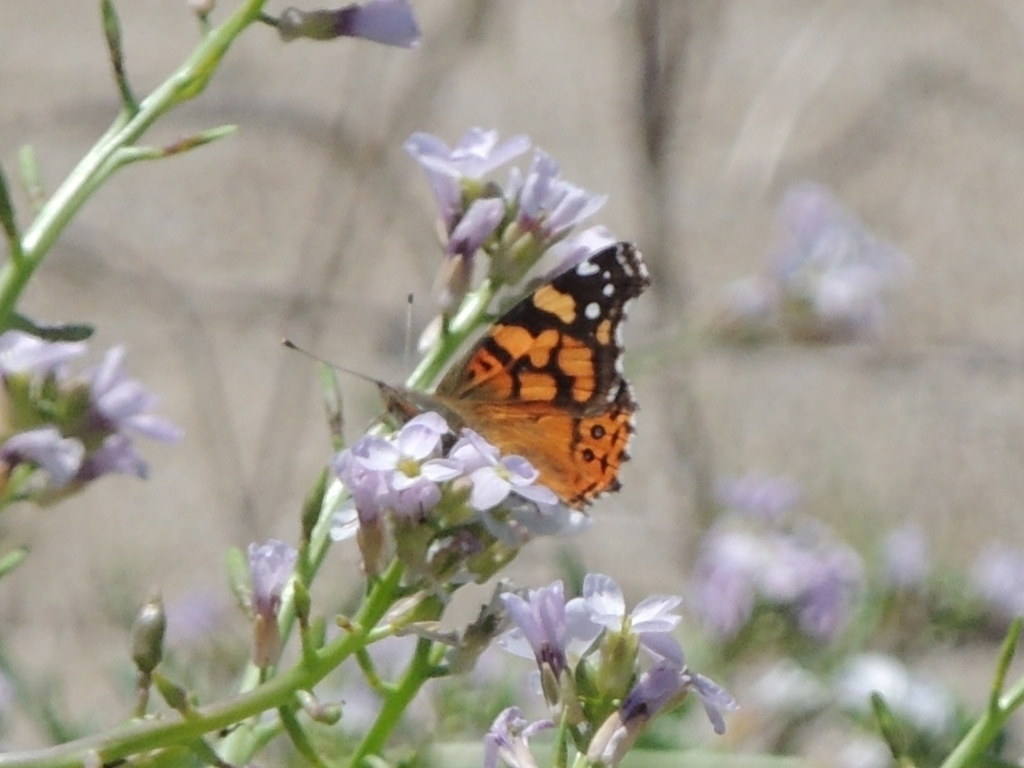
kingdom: Animalia
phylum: Arthropoda
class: Insecta
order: Lepidoptera
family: Nymphalidae
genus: Vanessa
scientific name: Vanessa annabella
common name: West coast lady
